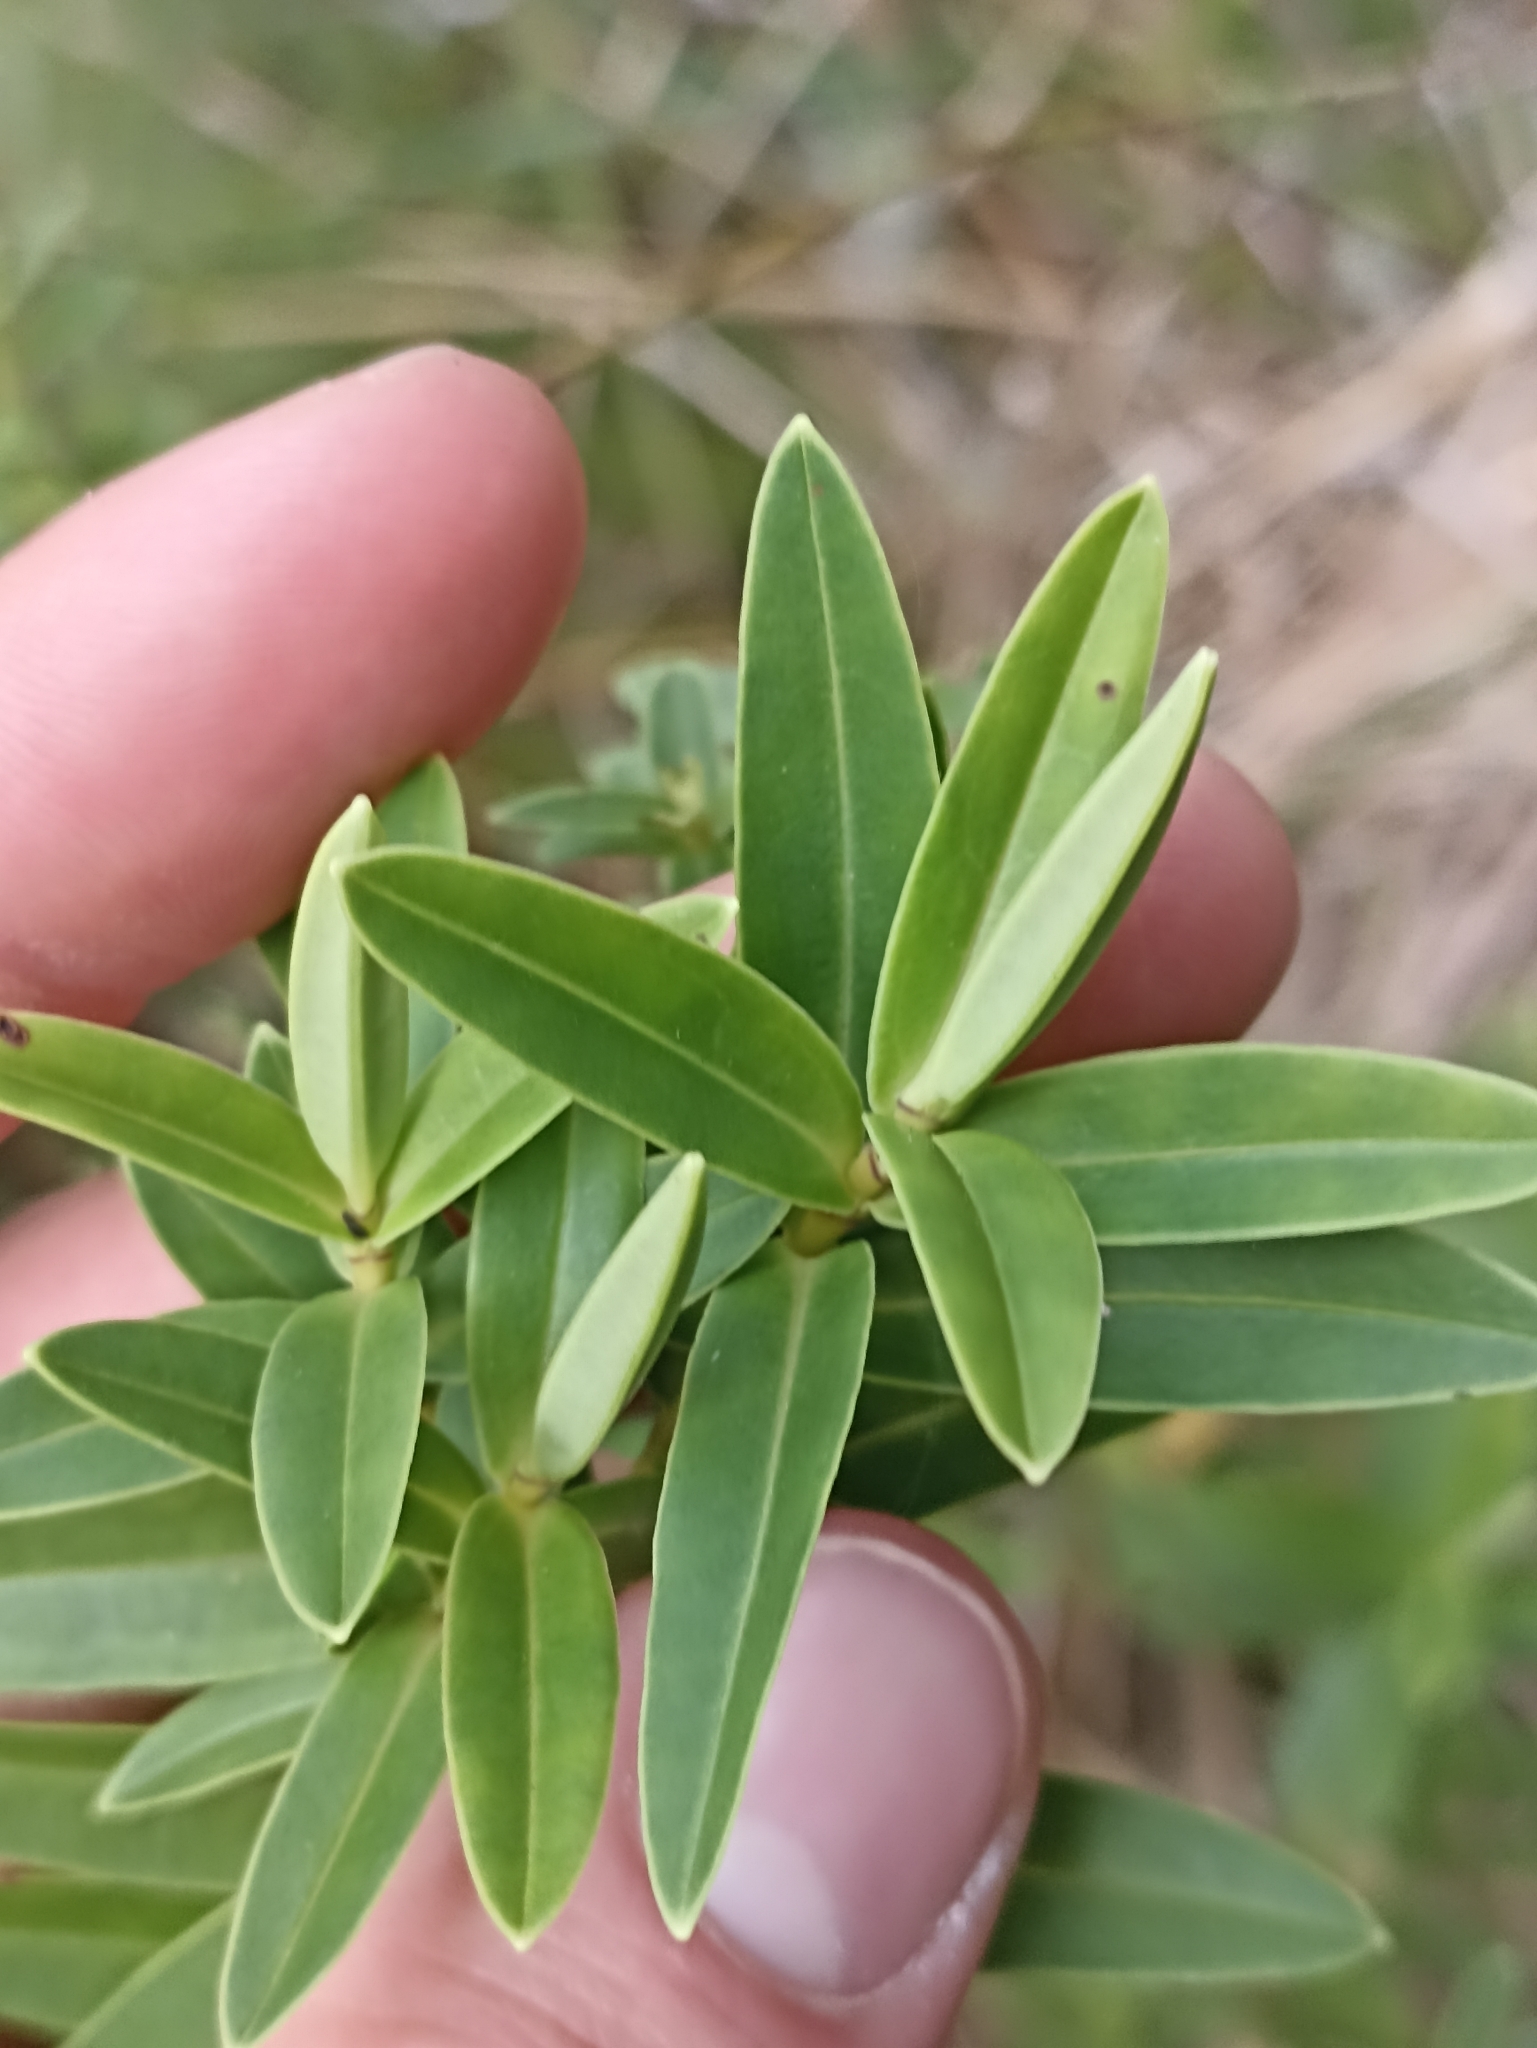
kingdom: Plantae
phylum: Tracheophyta
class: Magnoliopsida
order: Lamiales
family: Plantaginaceae
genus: Veronica
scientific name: Veronica subalpina
